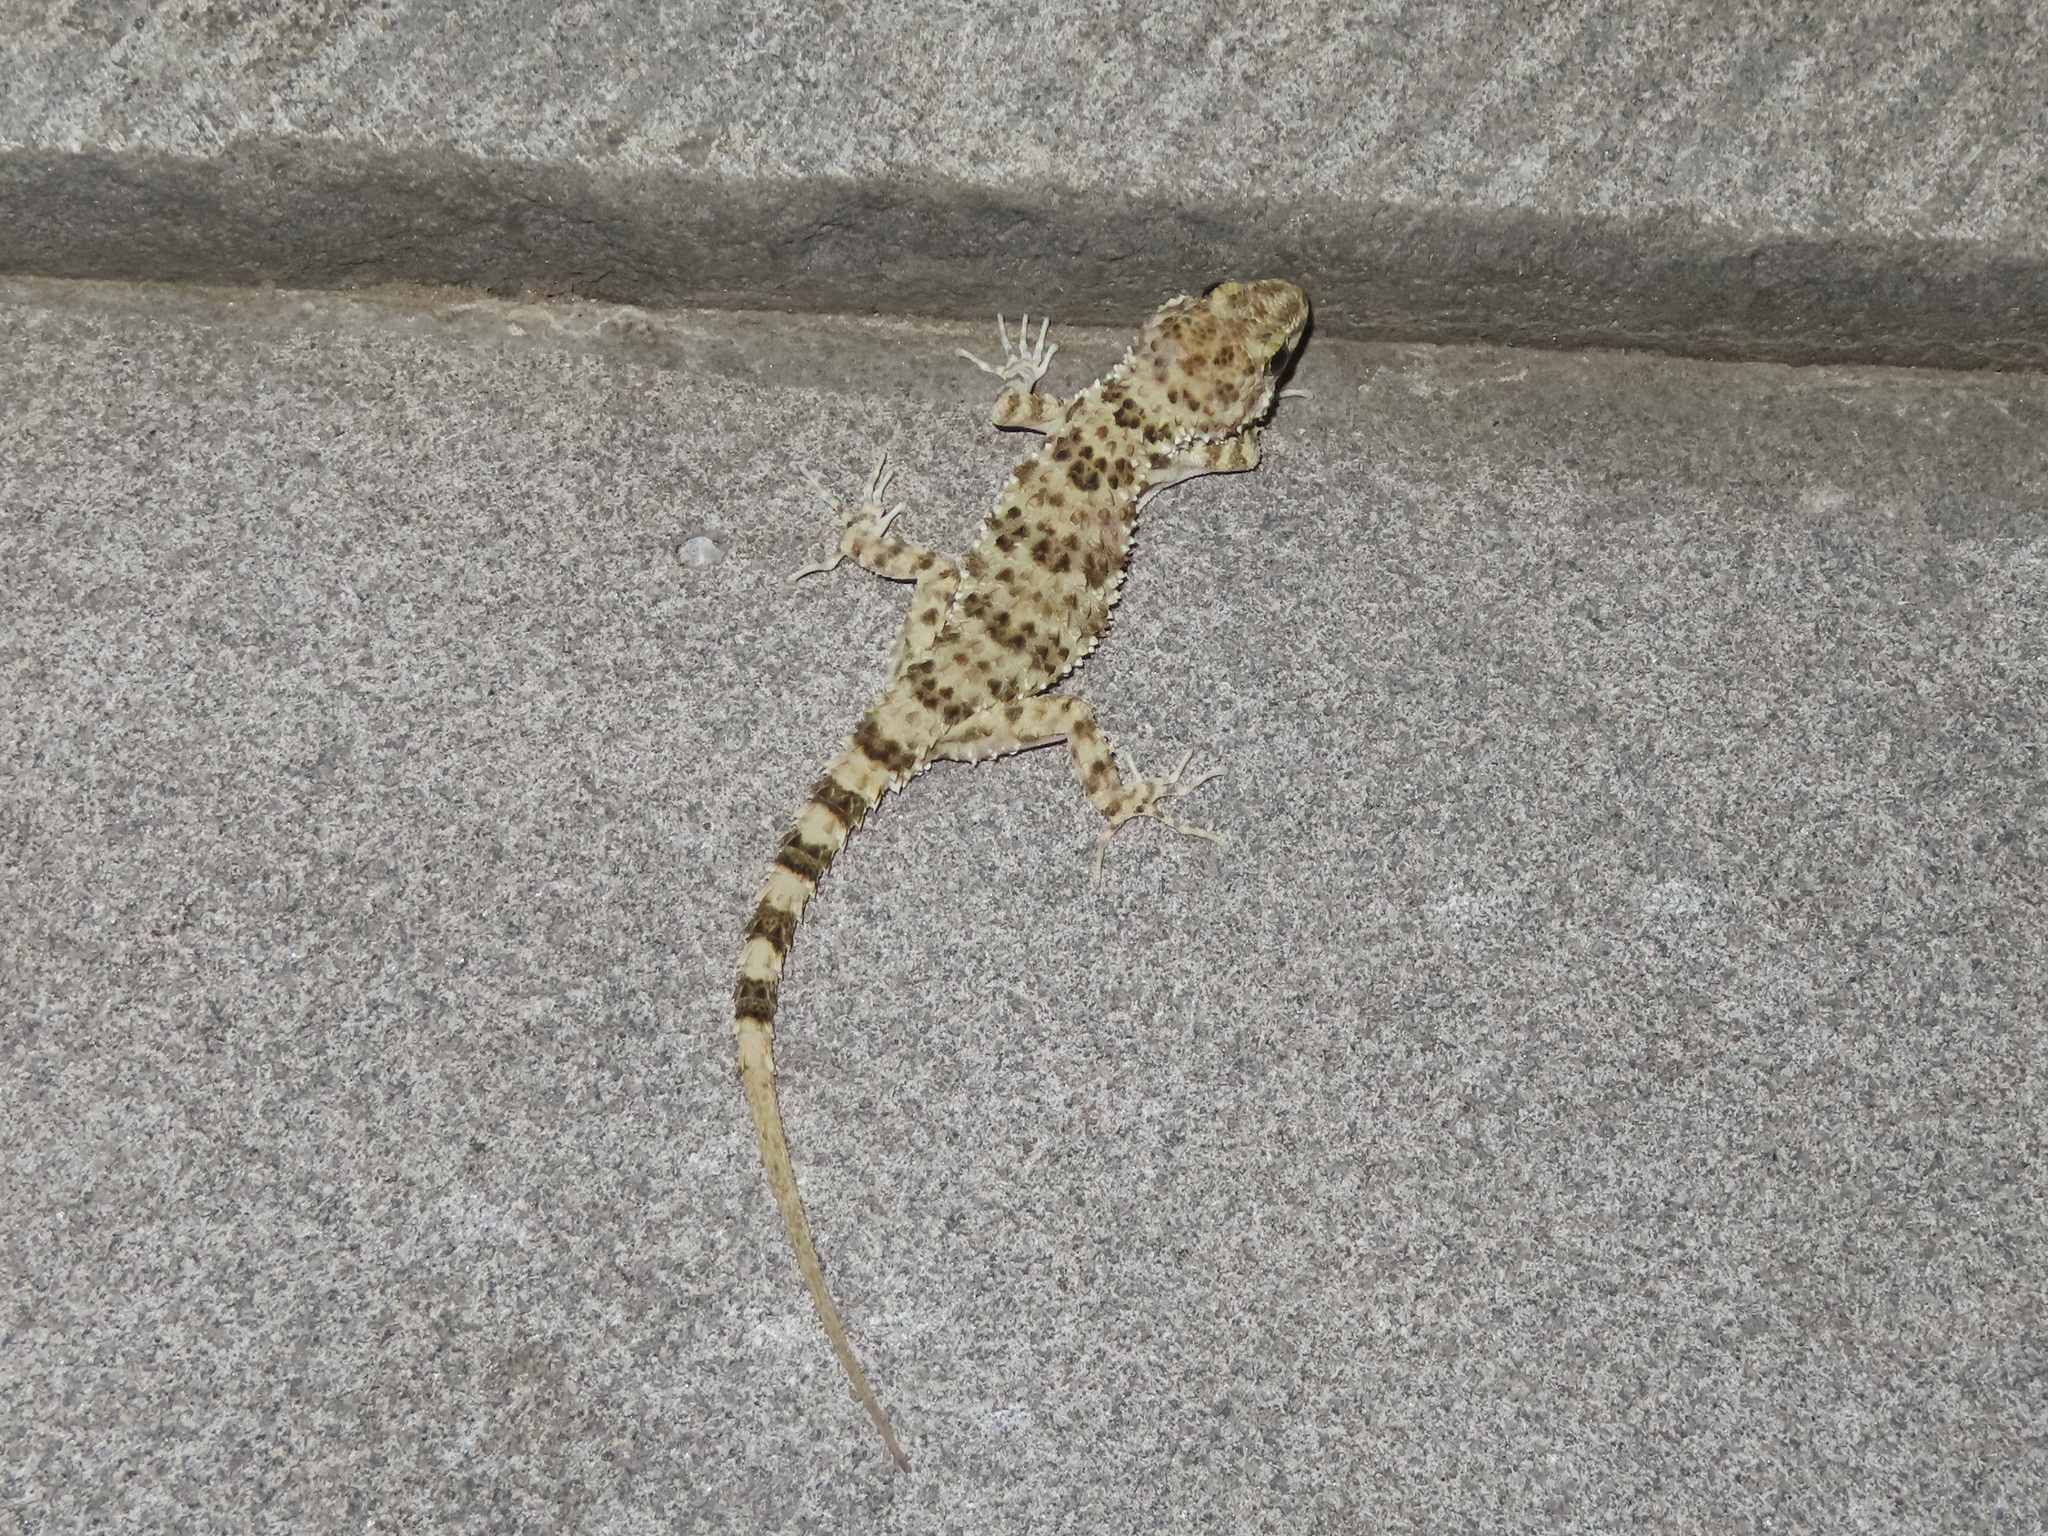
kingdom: Animalia
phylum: Chordata
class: Squamata
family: Gekkonidae
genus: Tenuidactylus
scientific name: Tenuidactylus caspius
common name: Caspian bent-toed gecko
